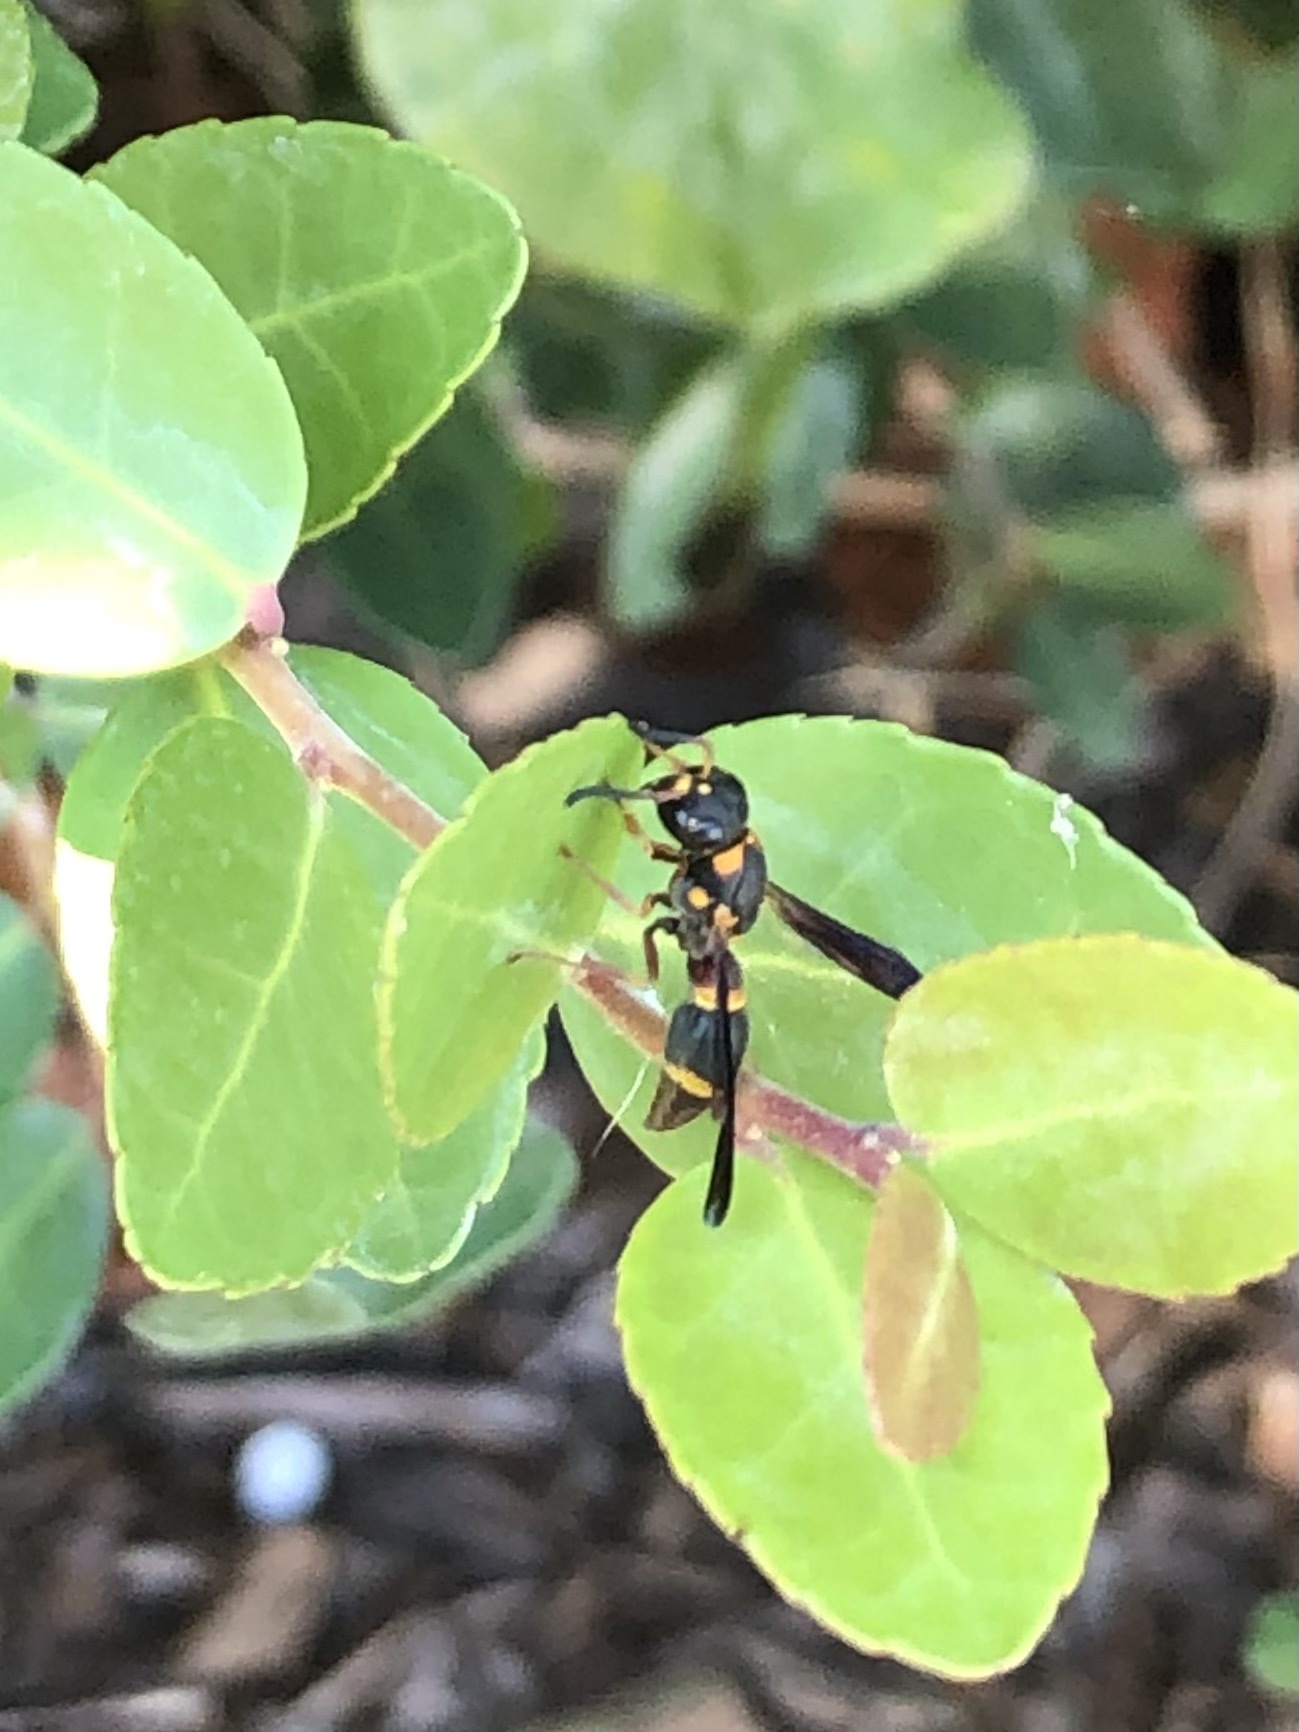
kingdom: Animalia
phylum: Arthropoda
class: Insecta
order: Hymenoptera
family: Eumenidae
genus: Parancistrocerus
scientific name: Parancistrocerus perennis
